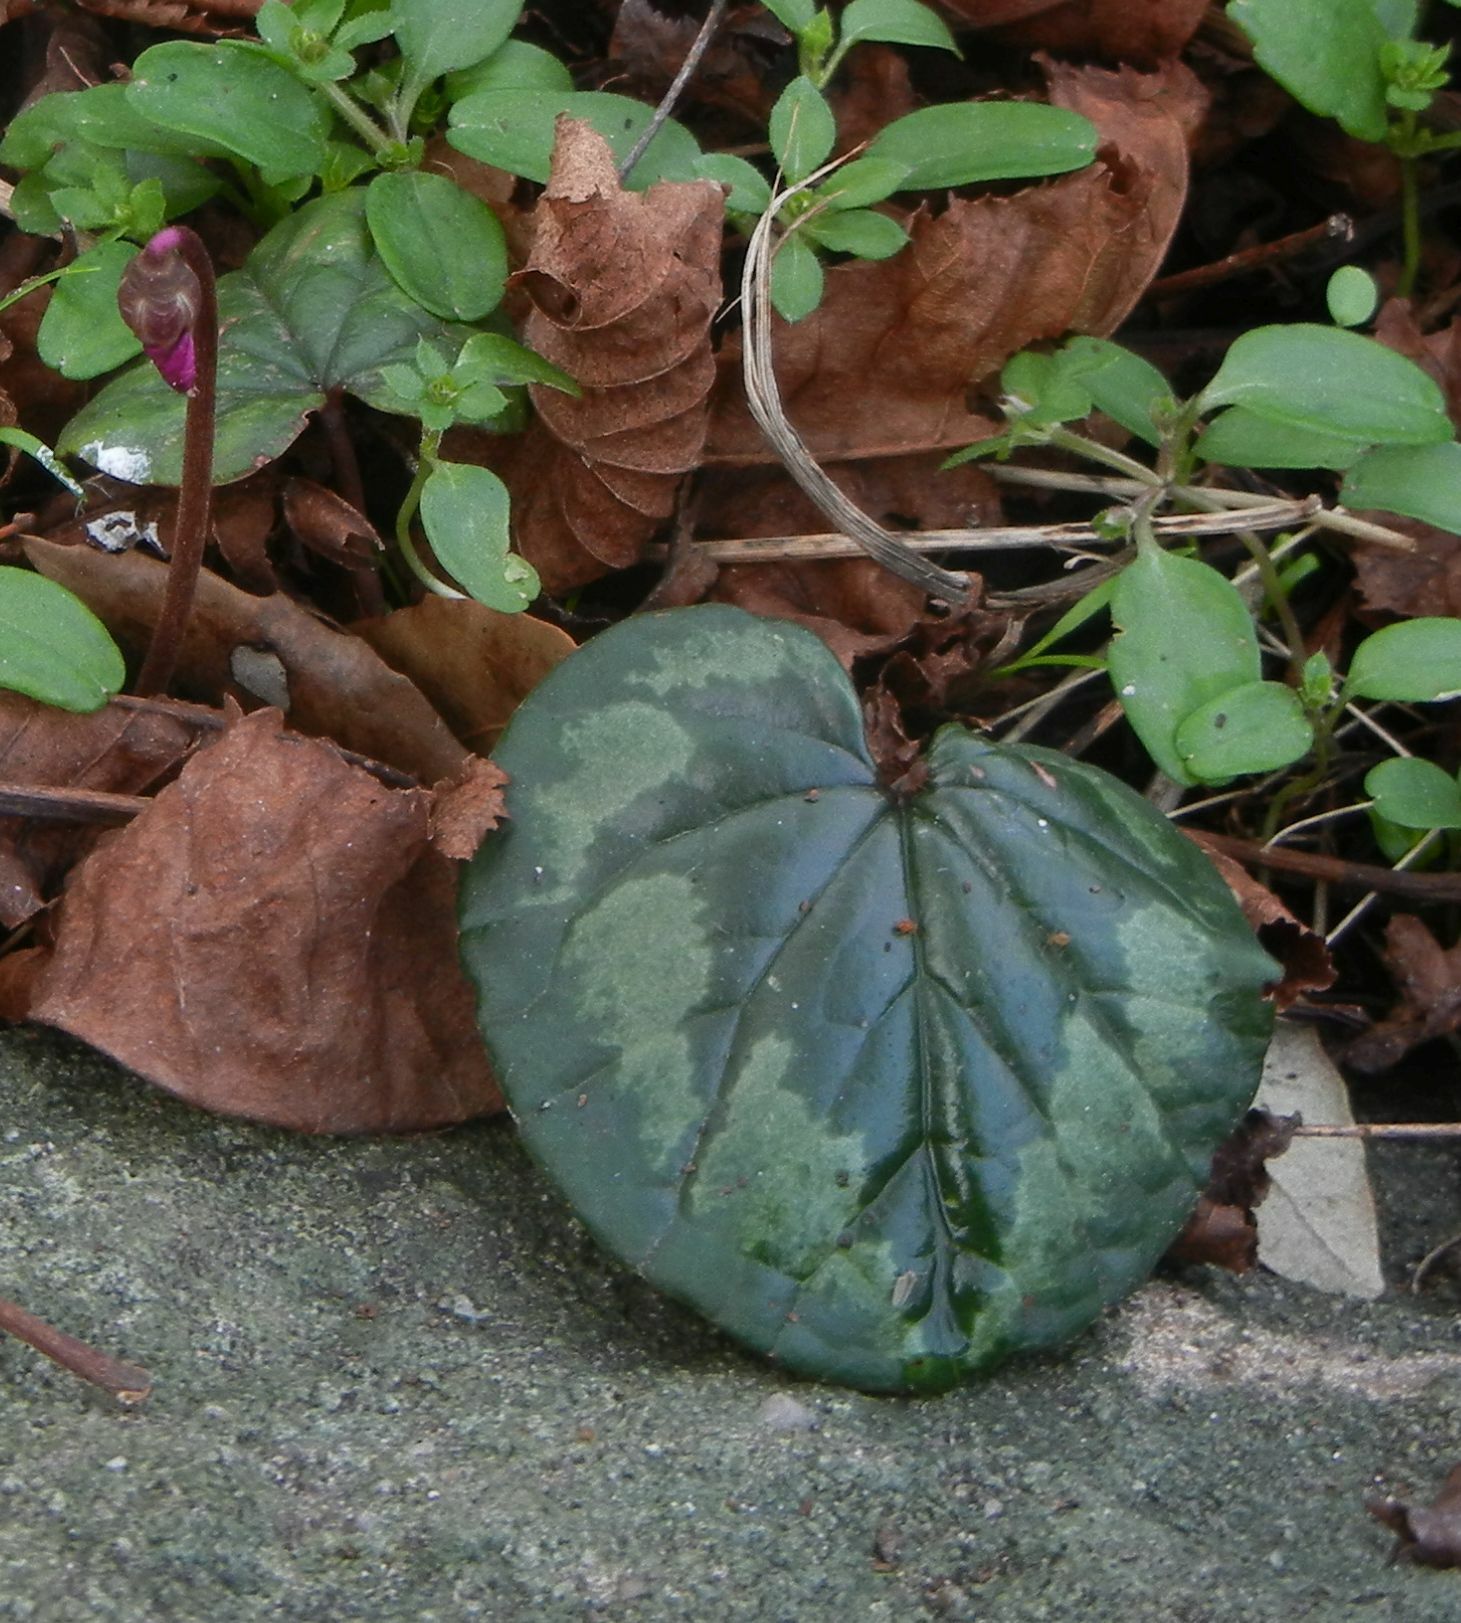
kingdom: Plantae
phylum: Tracheophyta
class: Magnoliopsida
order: Ericales
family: Primulaceae
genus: Cyclamen
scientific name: Cyclamen coum
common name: Eastern sowbread
